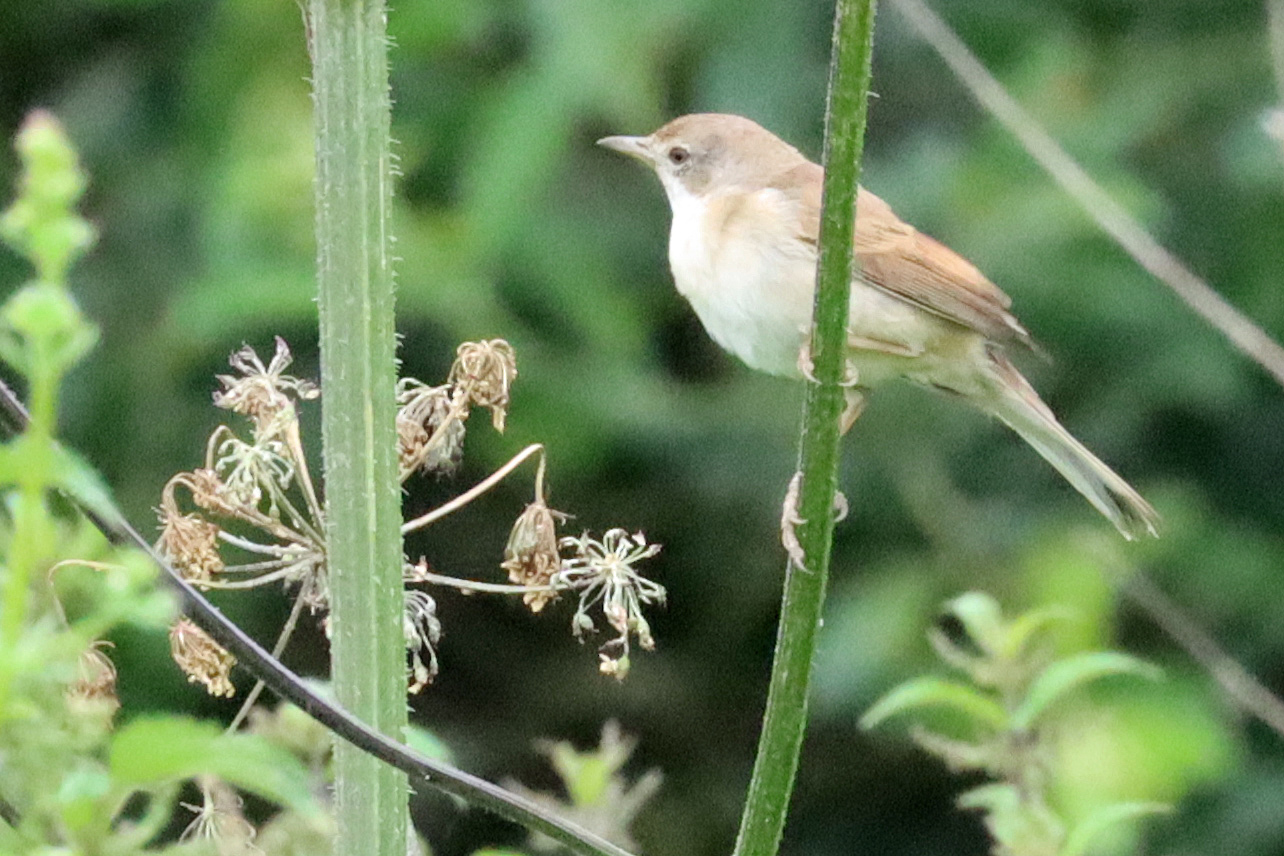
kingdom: Animalia
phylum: Chordata
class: Aves
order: Passeriformes
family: Sylviidae
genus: Sylvia
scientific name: Sylvia communis
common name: Common whitethroat
